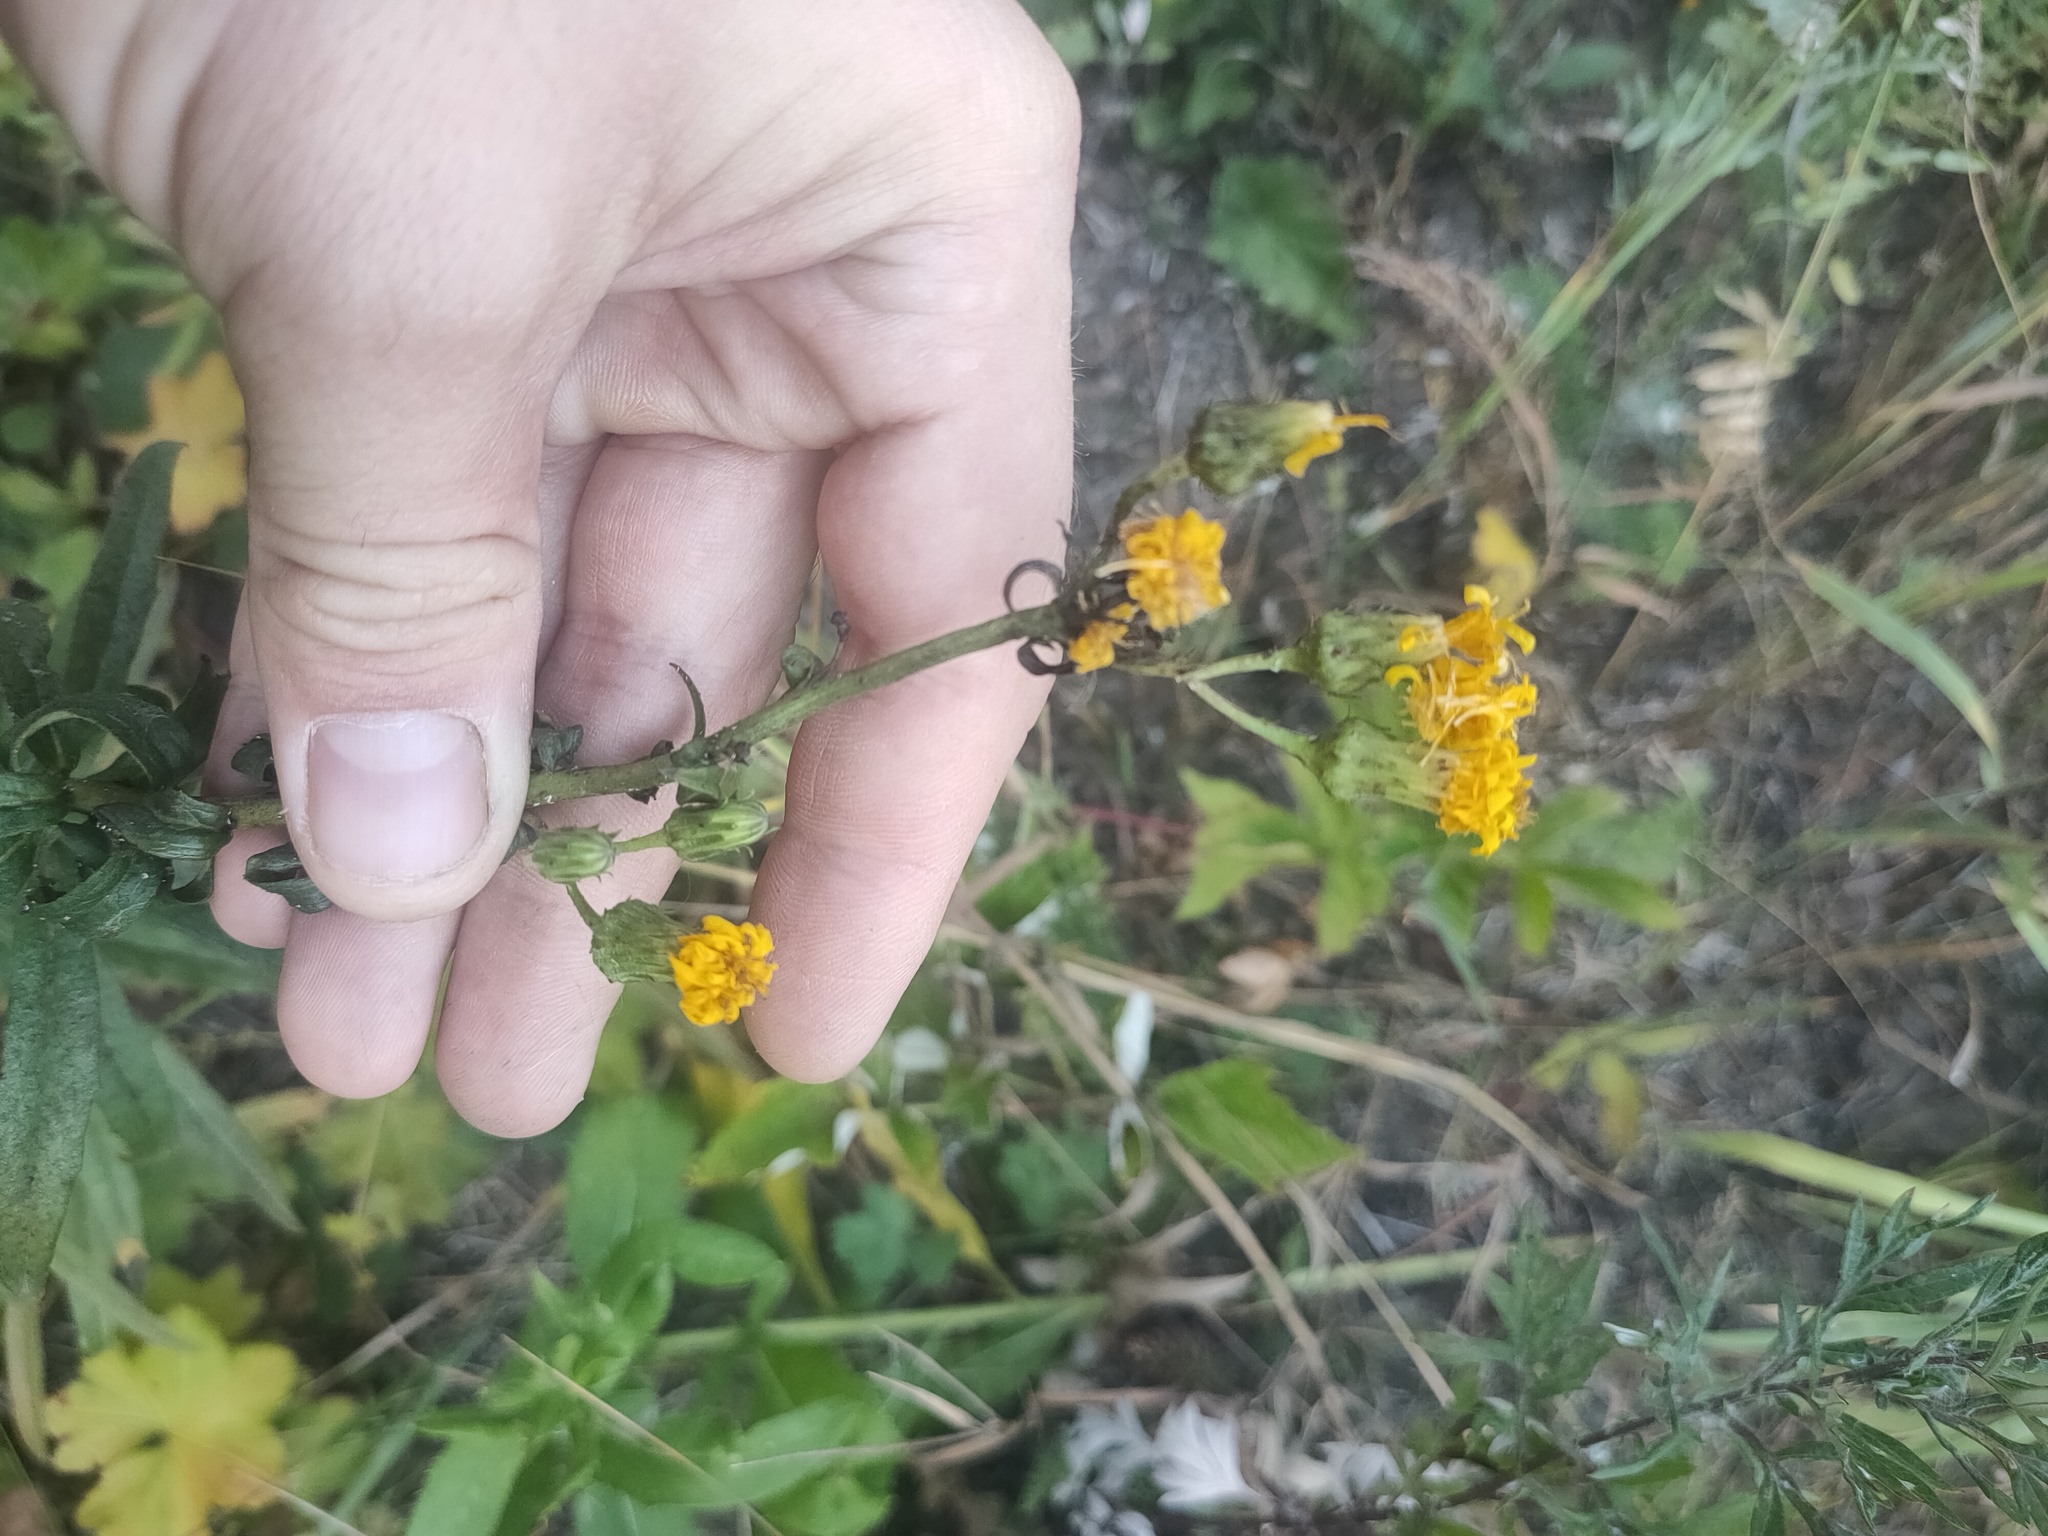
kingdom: Plantae
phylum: Tracheophyta
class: Magnoliopsida
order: Asterales
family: Asteraceae
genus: Hieracium
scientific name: Hieracium umbellatum
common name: Northern hawkweed
